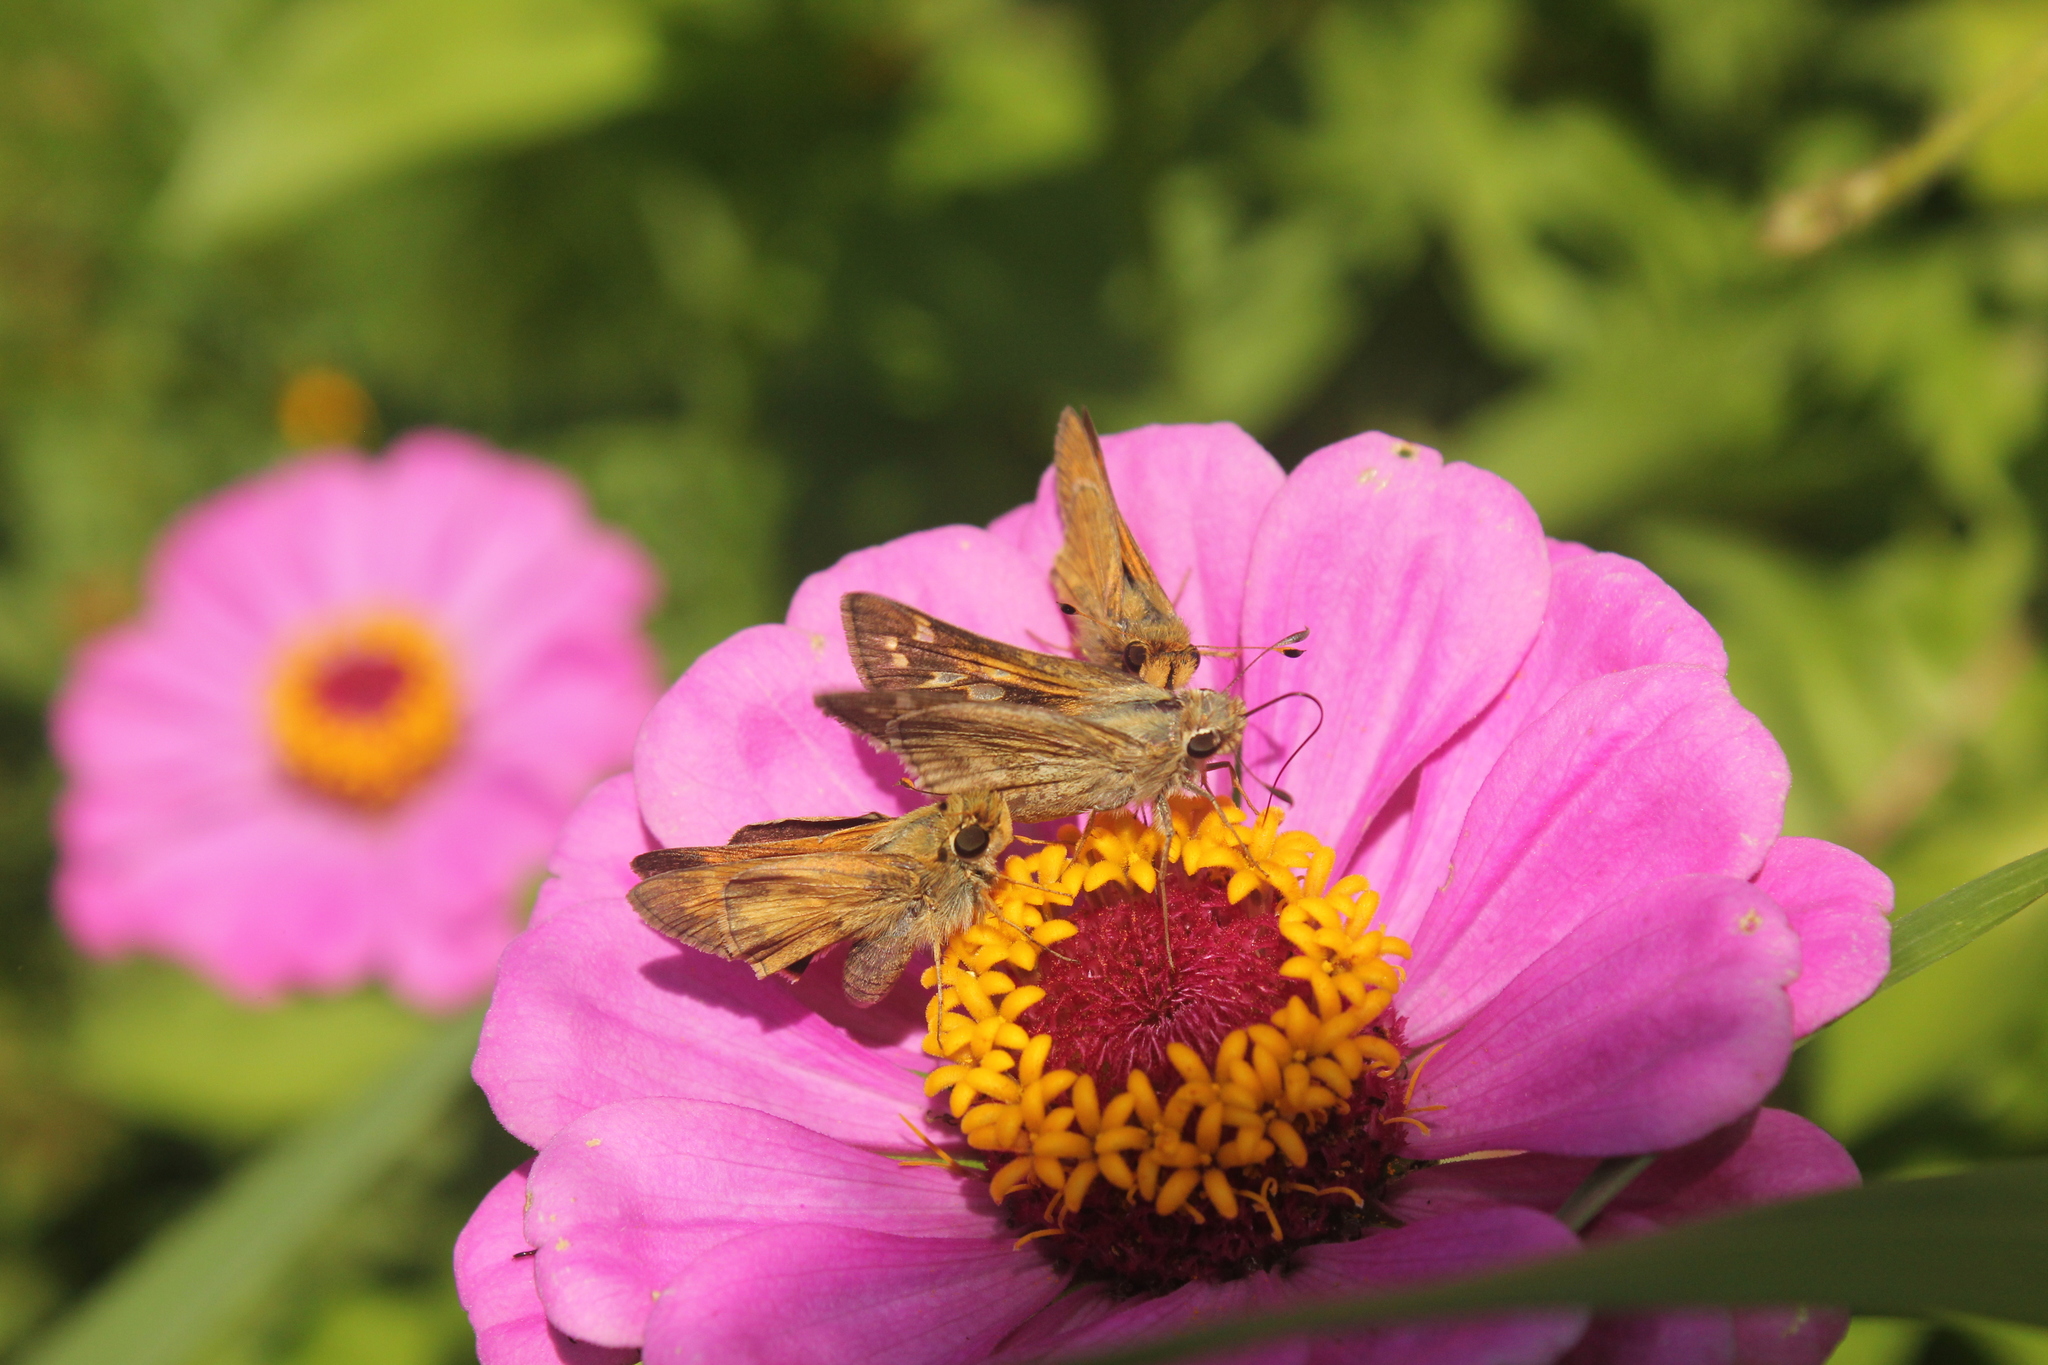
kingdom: Animalia
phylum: Arthropoda
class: Insecta
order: Lepidoptera
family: Hesperiidae
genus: Atalopedes
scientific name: Atalopedes
